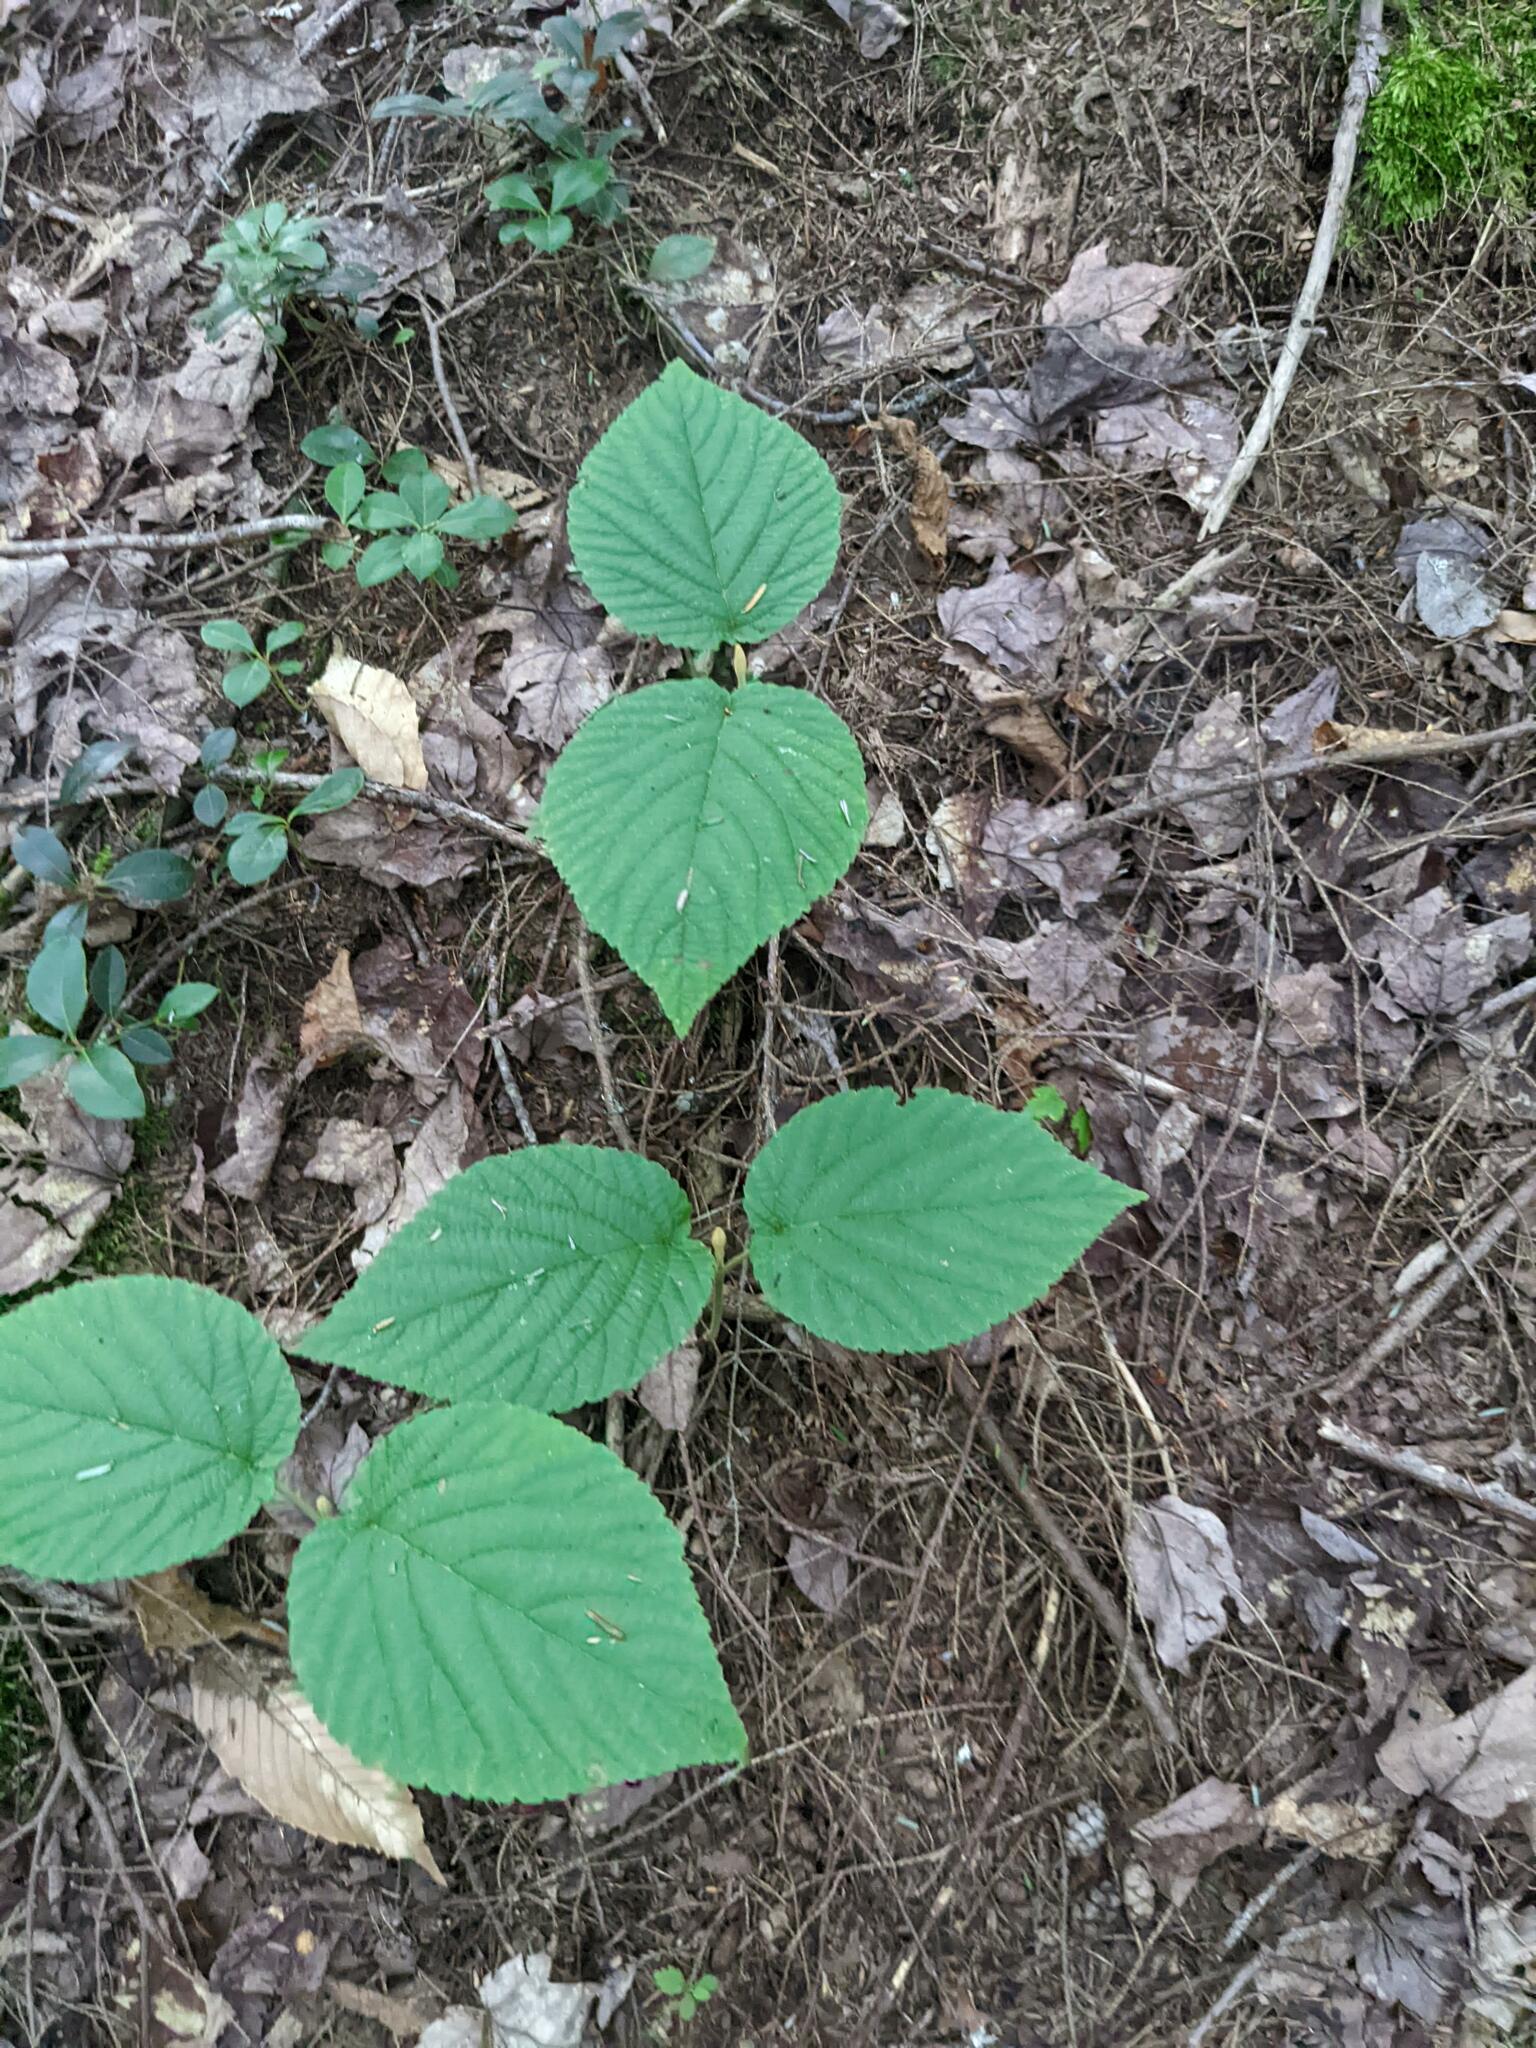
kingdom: Plantae
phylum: Tracheophyta
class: Magnoliopsida
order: Dipsacales
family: Viburnaceae
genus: Viburnum
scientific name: Viburnum lantanoides
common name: Hobblebush
